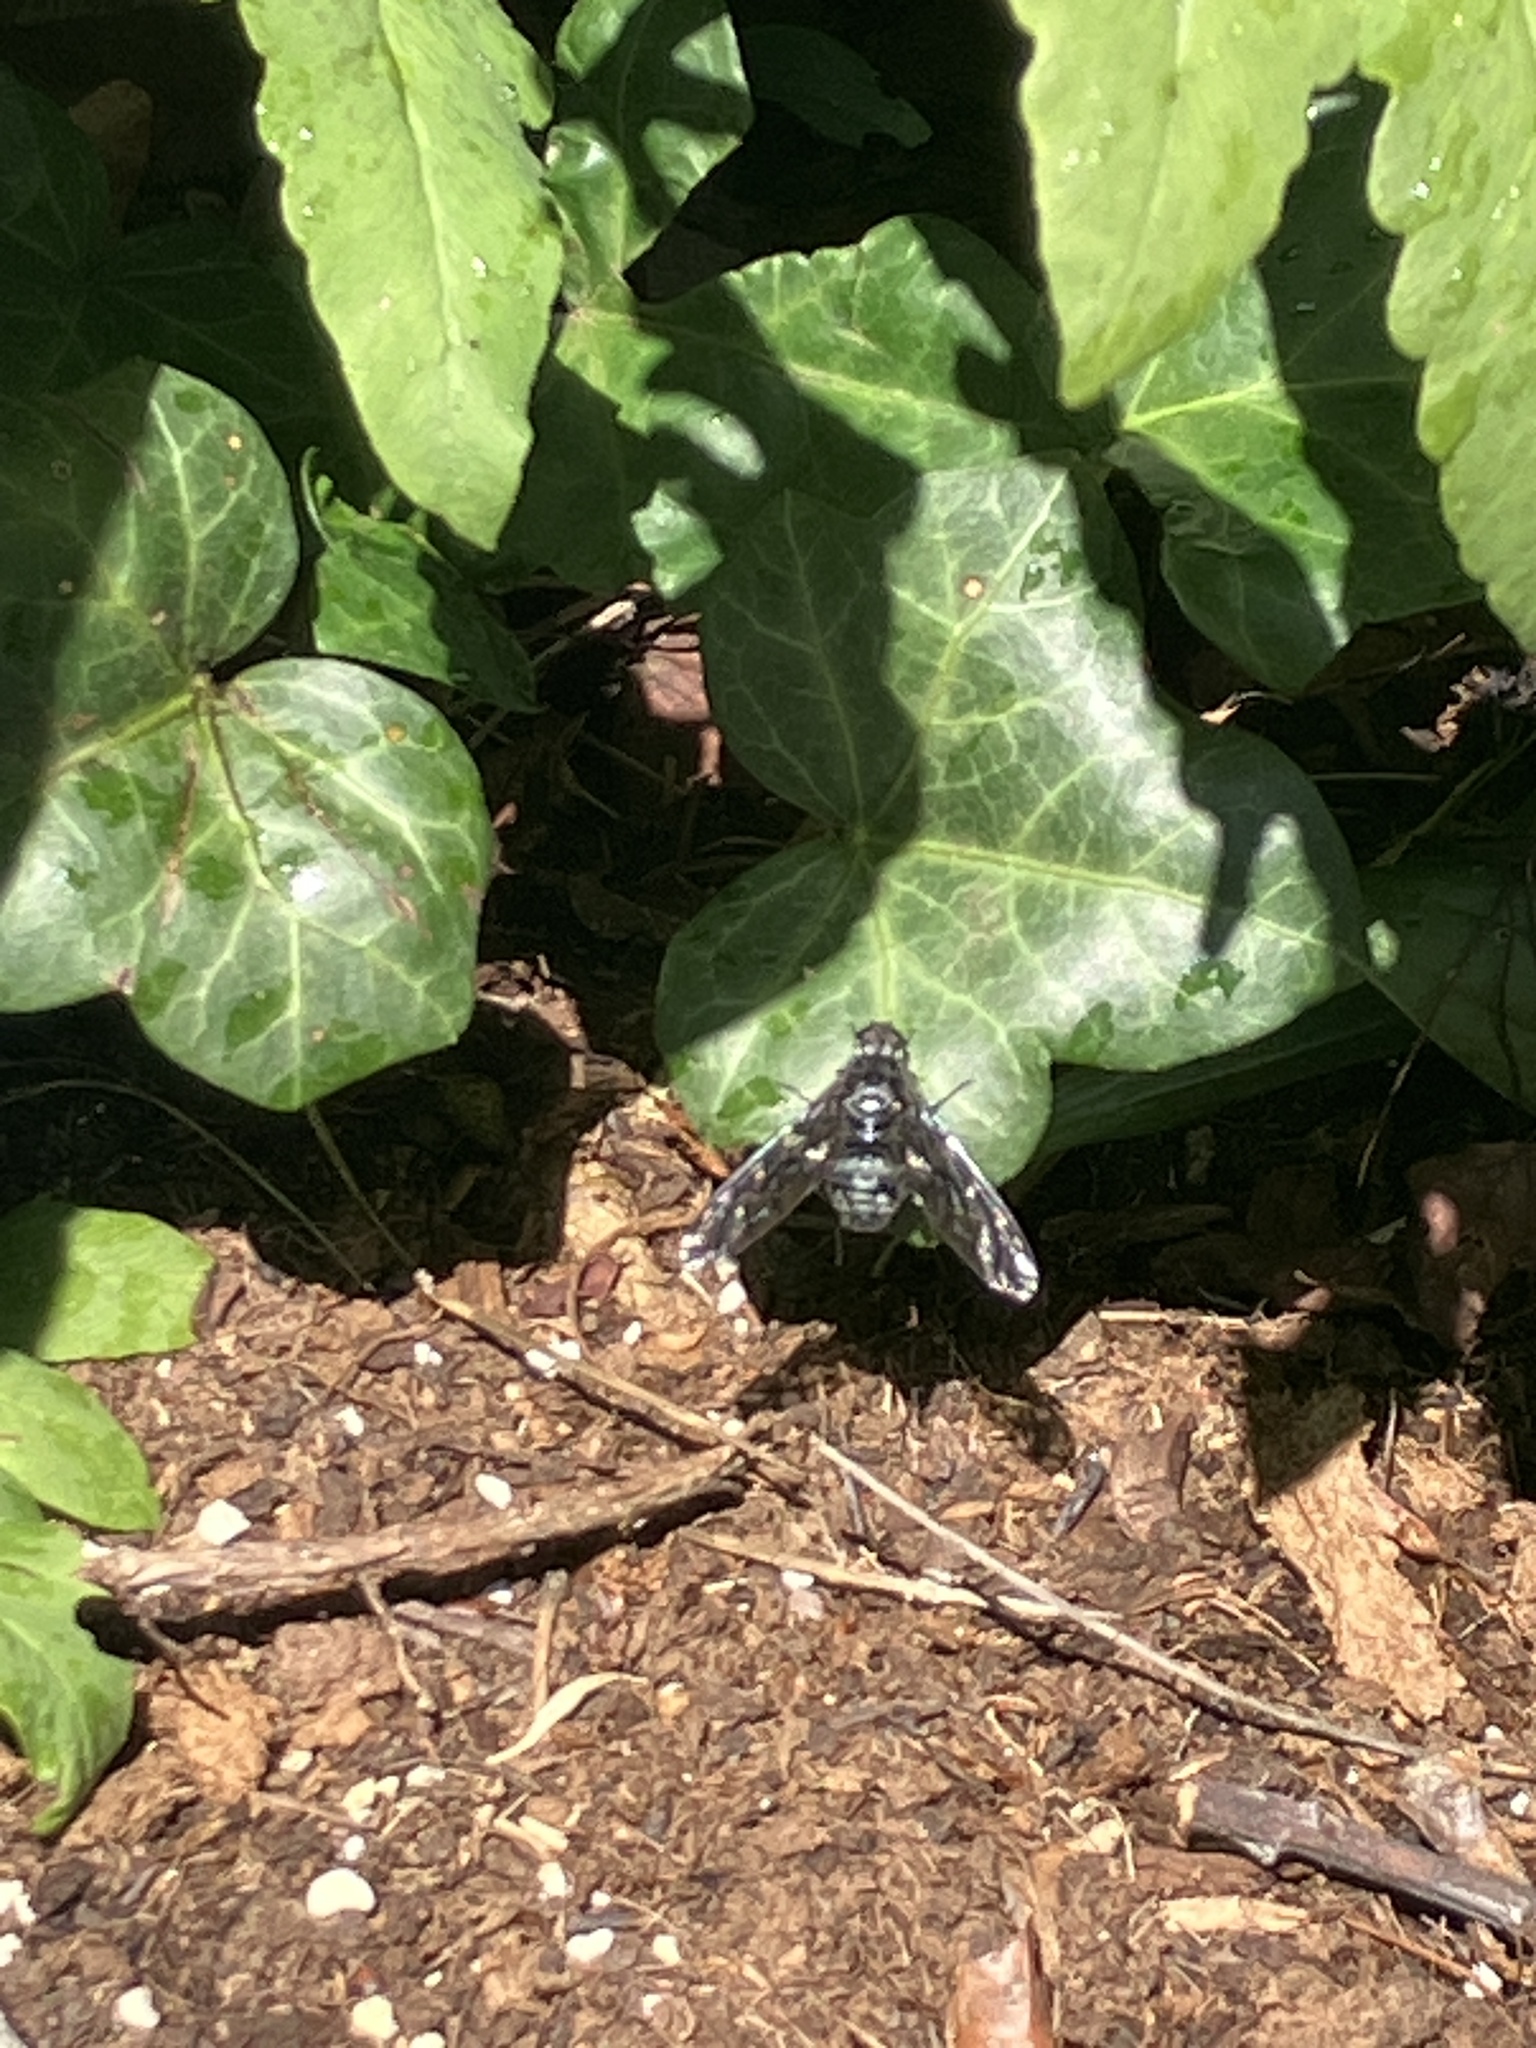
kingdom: Animalia
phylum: Arthropoda
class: Insecta
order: Diptera
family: Bombyliidae
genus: Xenox
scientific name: Xenox tigrinus
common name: Tiger bee fly
